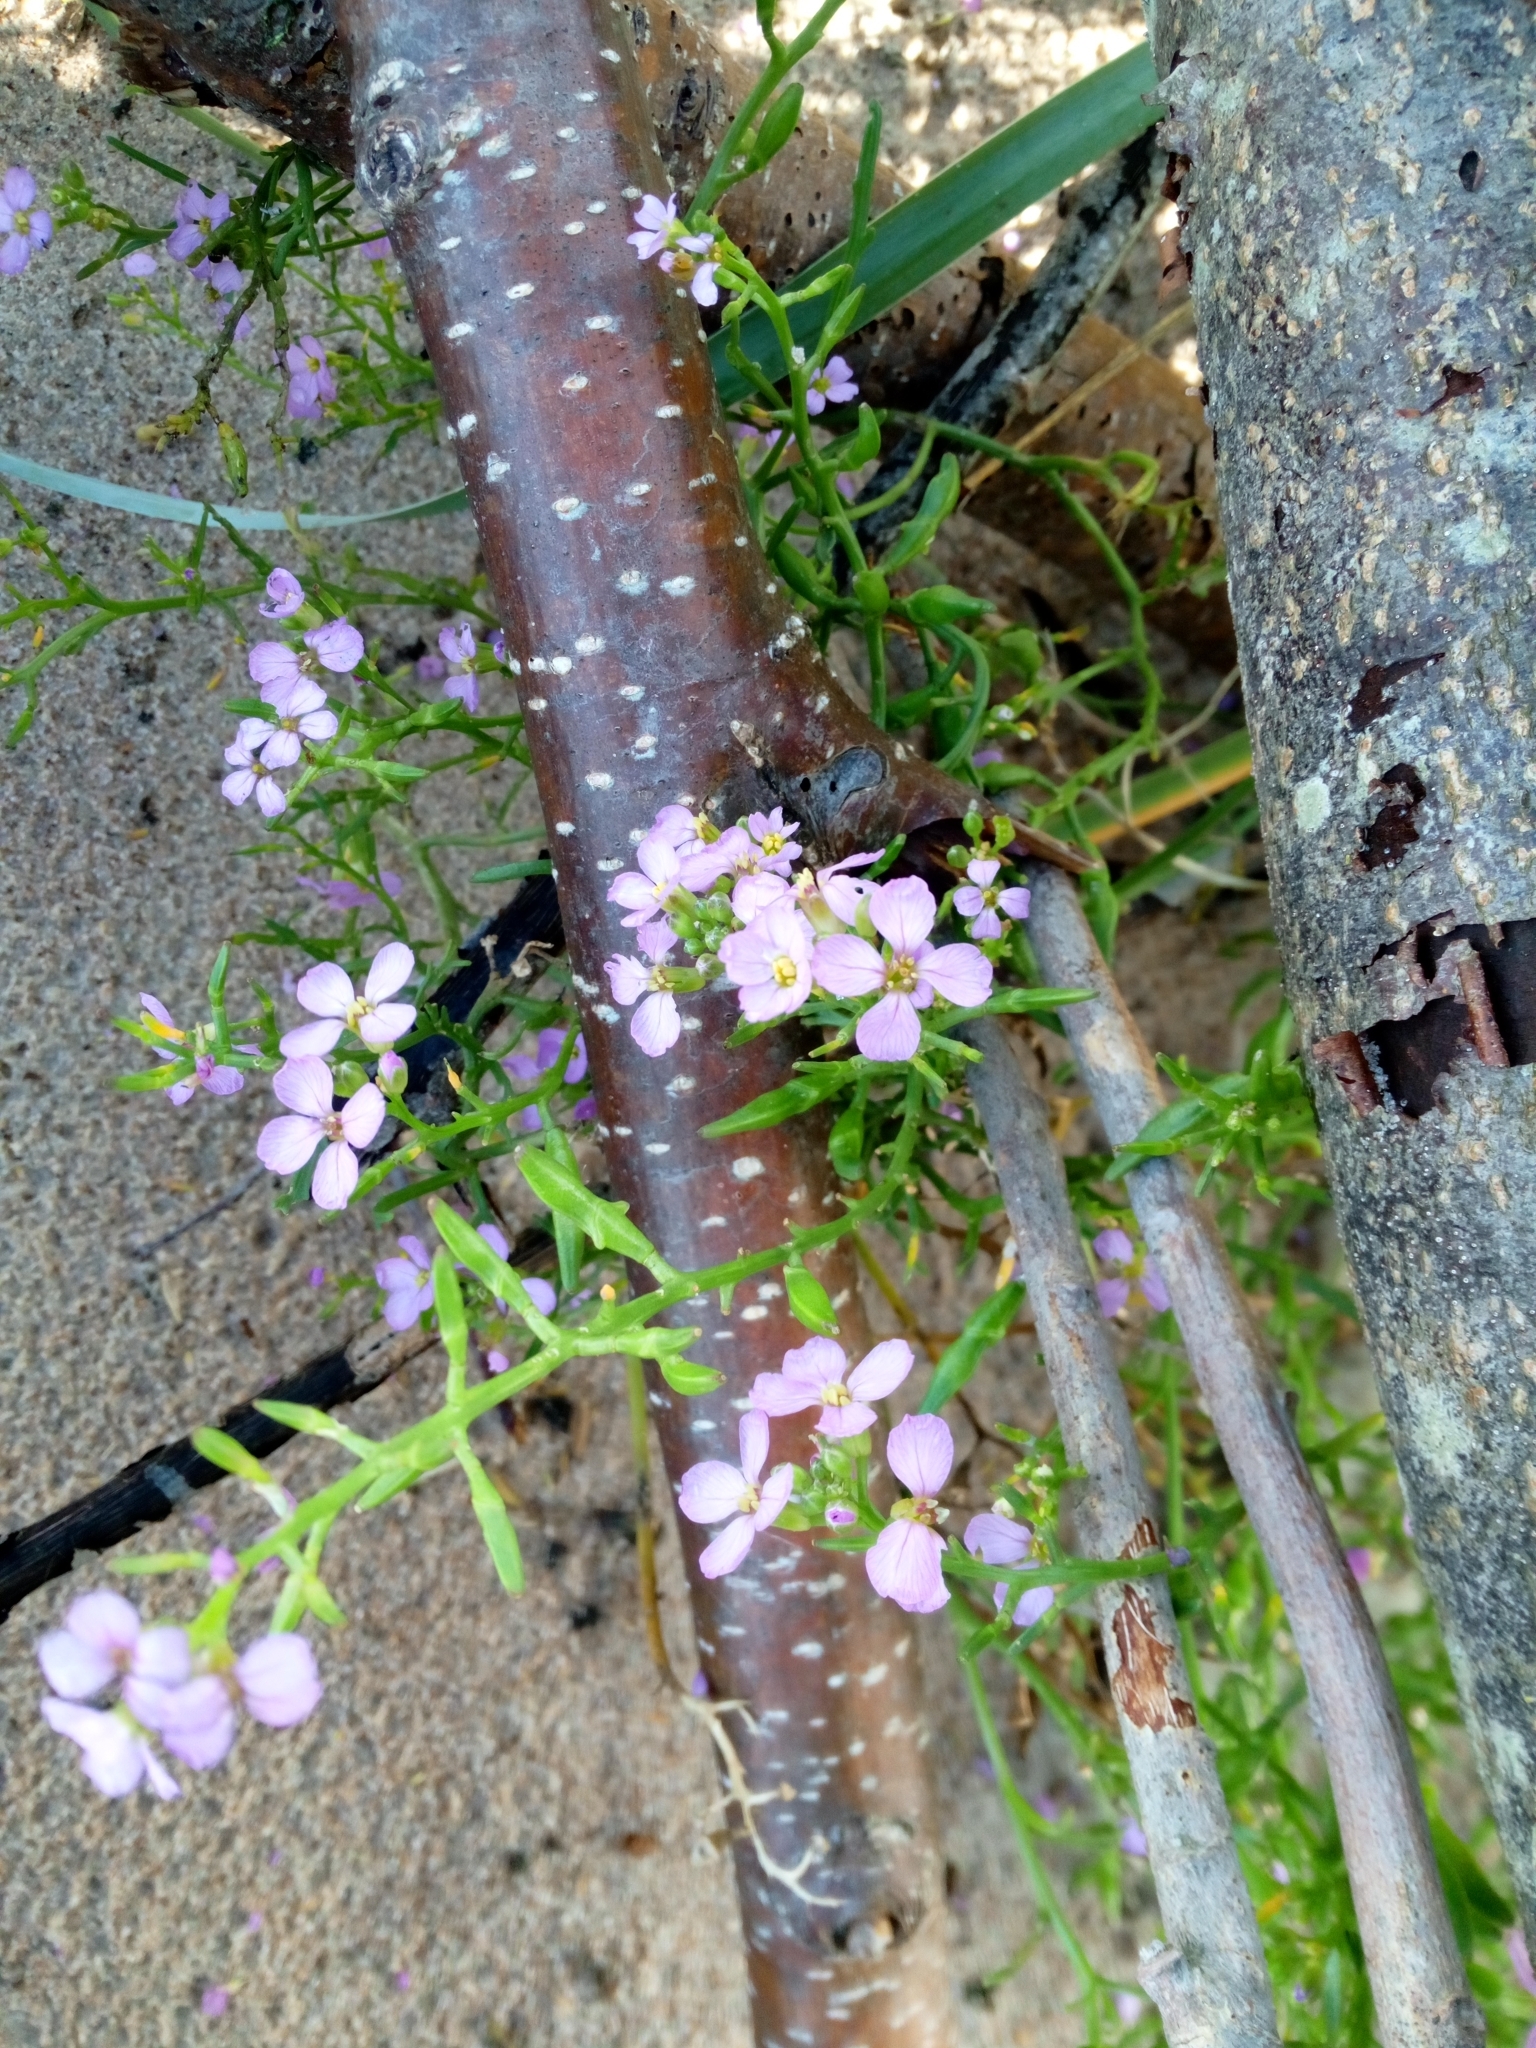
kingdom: Plantae
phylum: Tracheophyta
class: Magnoliopsida
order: Brassicales
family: Brassicaceae
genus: Cakile
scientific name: Cakile maritima
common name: Sea rocket
